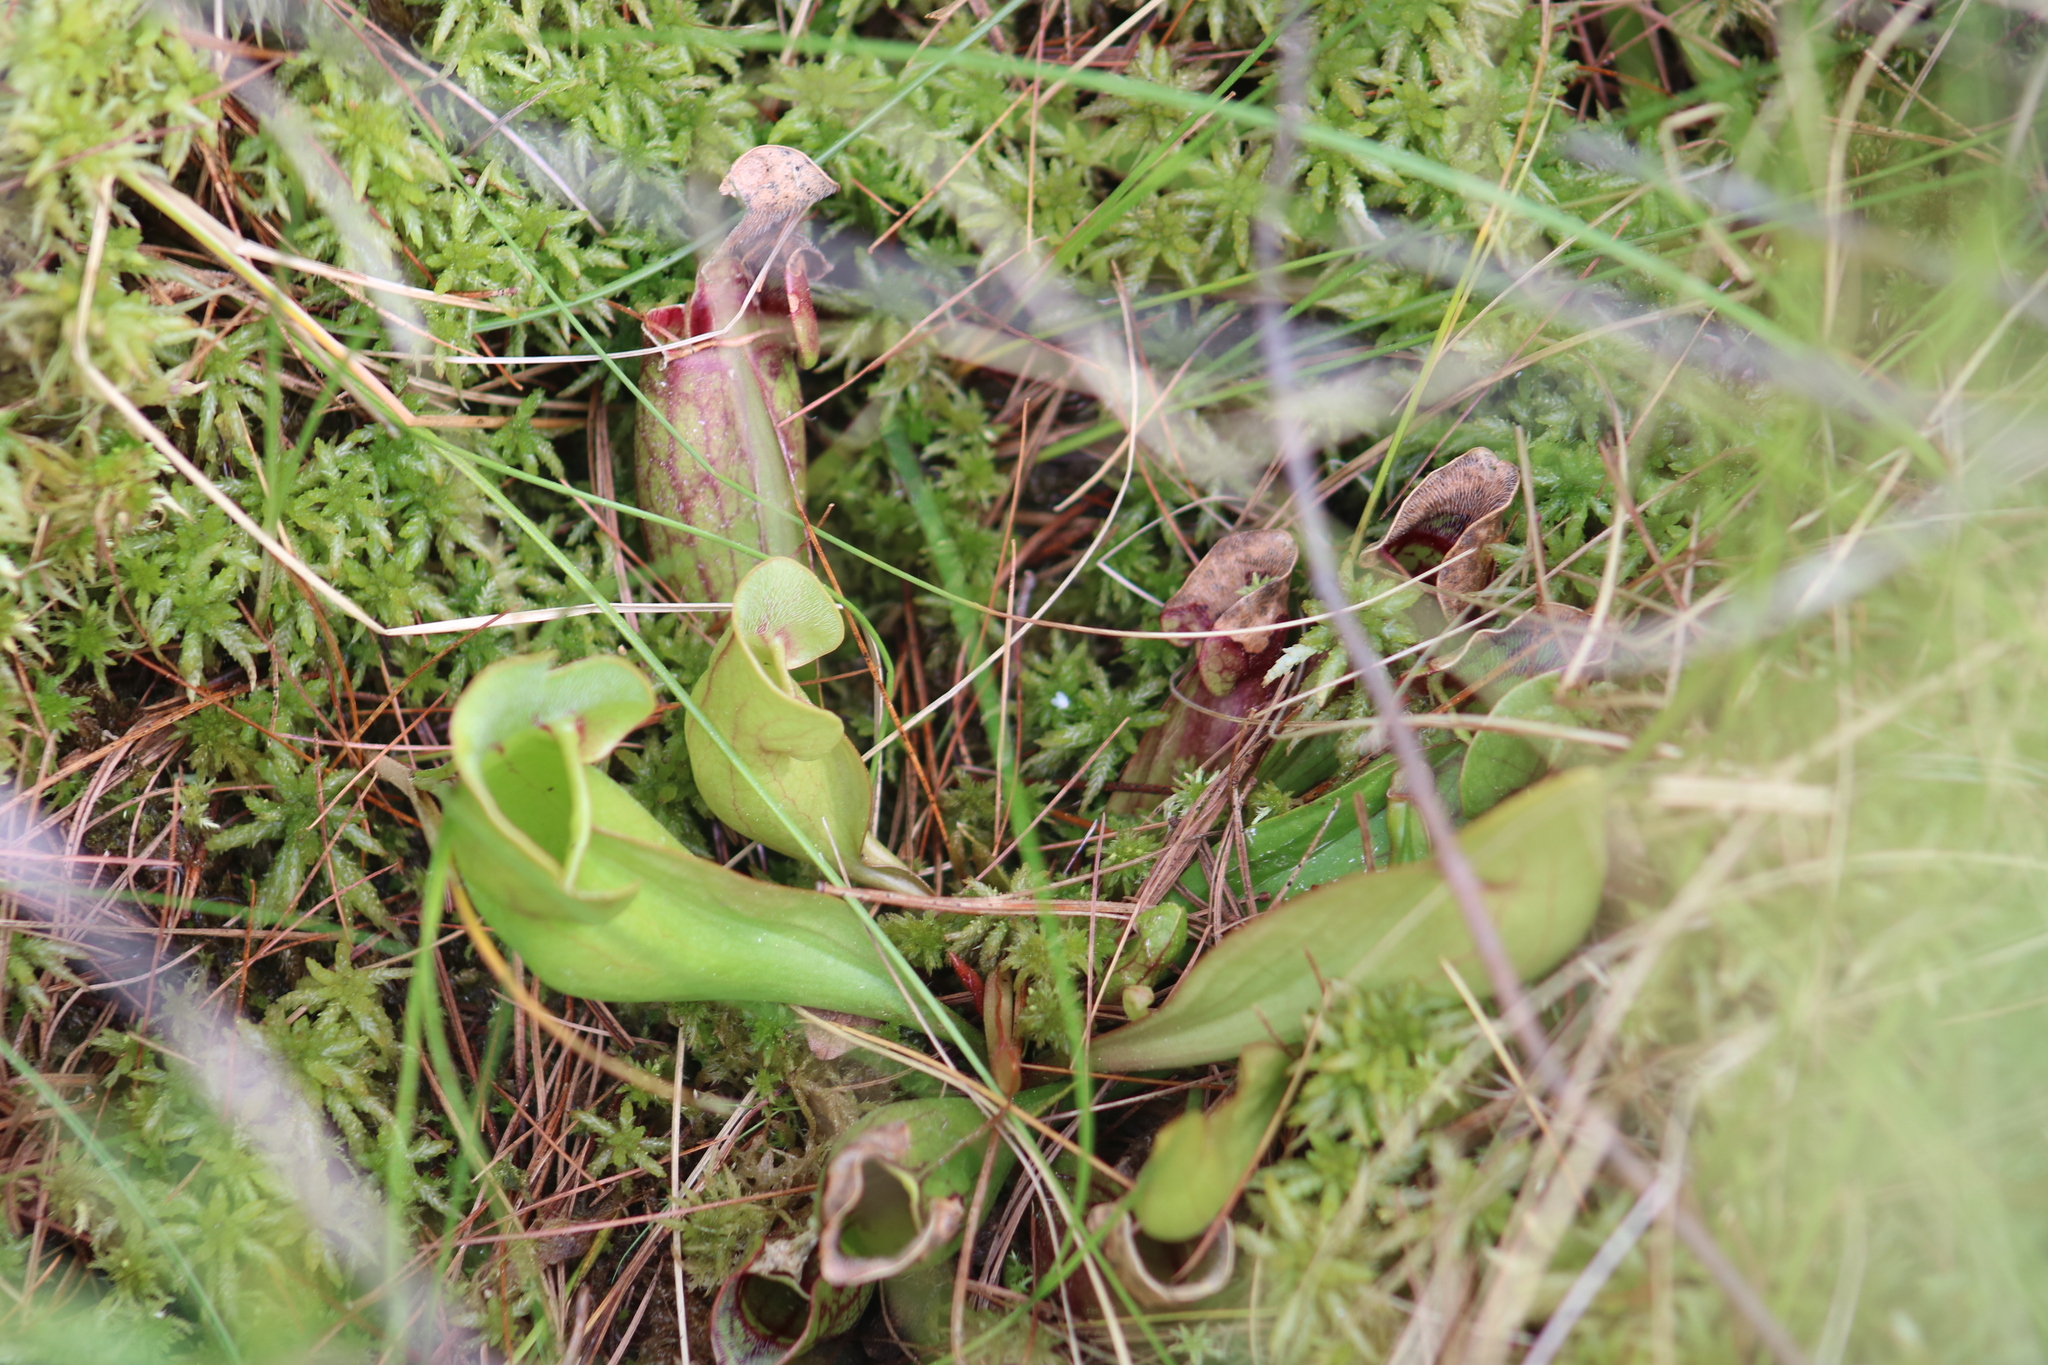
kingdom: Plantae
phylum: Tracheophyta
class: Magnoliopsida
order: Ericales
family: Sarraceniaceae
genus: Sarracenia
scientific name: Sarracenia purpurea
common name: Pitcherplant
